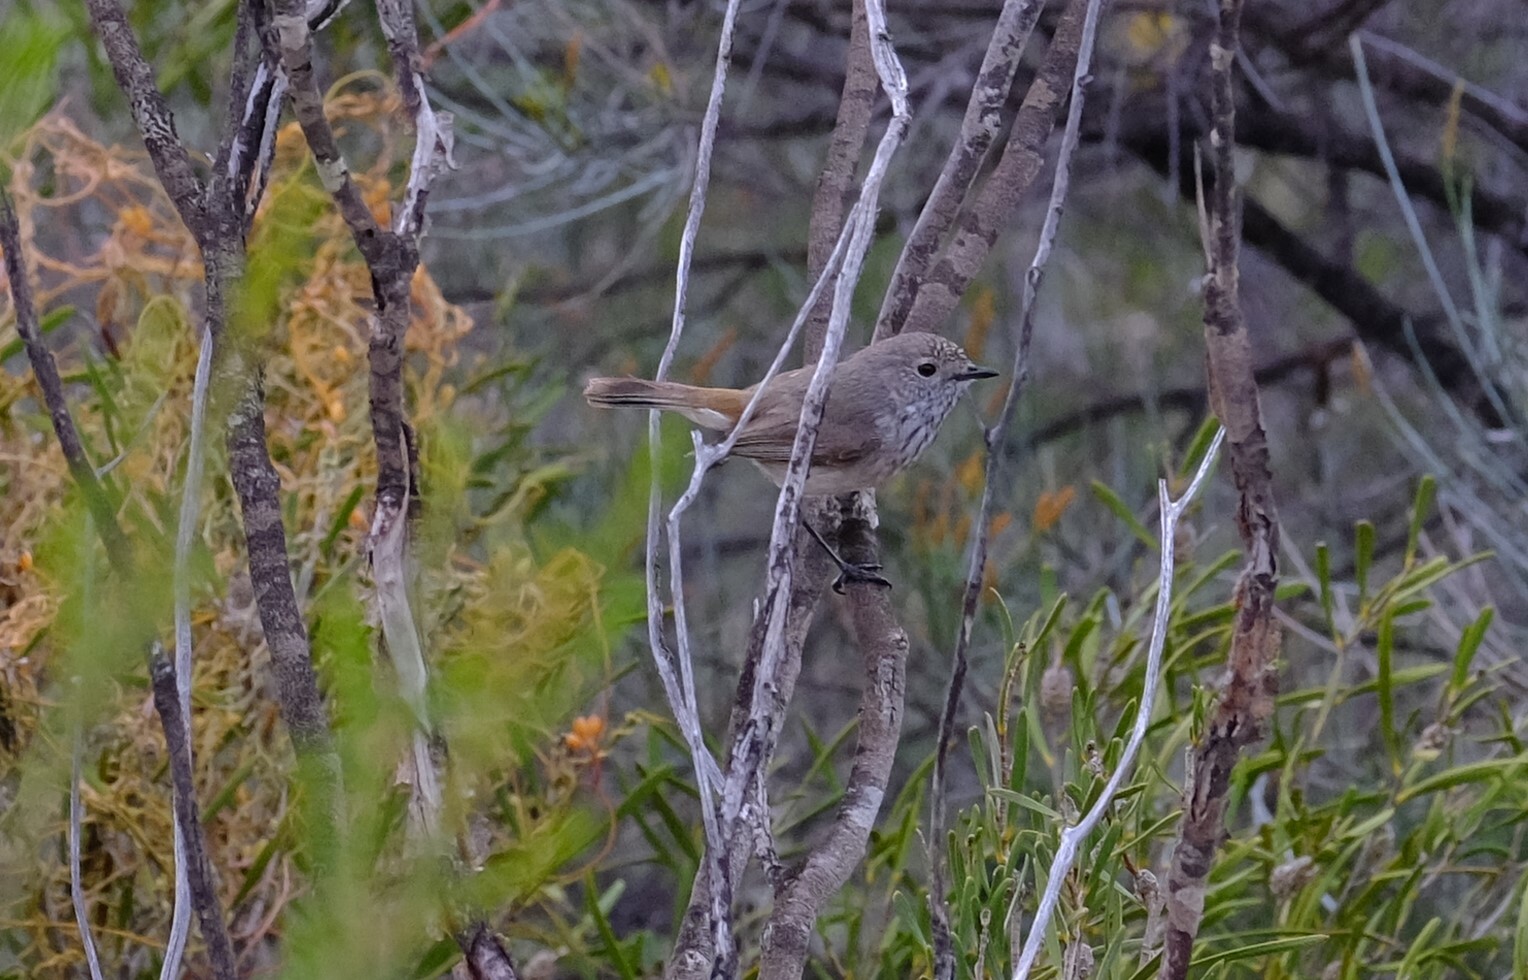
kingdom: Animalia
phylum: Chordata
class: Aves
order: Passeriformes
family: Acanthizidae
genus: Acanthiza
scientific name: Acanthiza apicalis
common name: Inland thornbill
